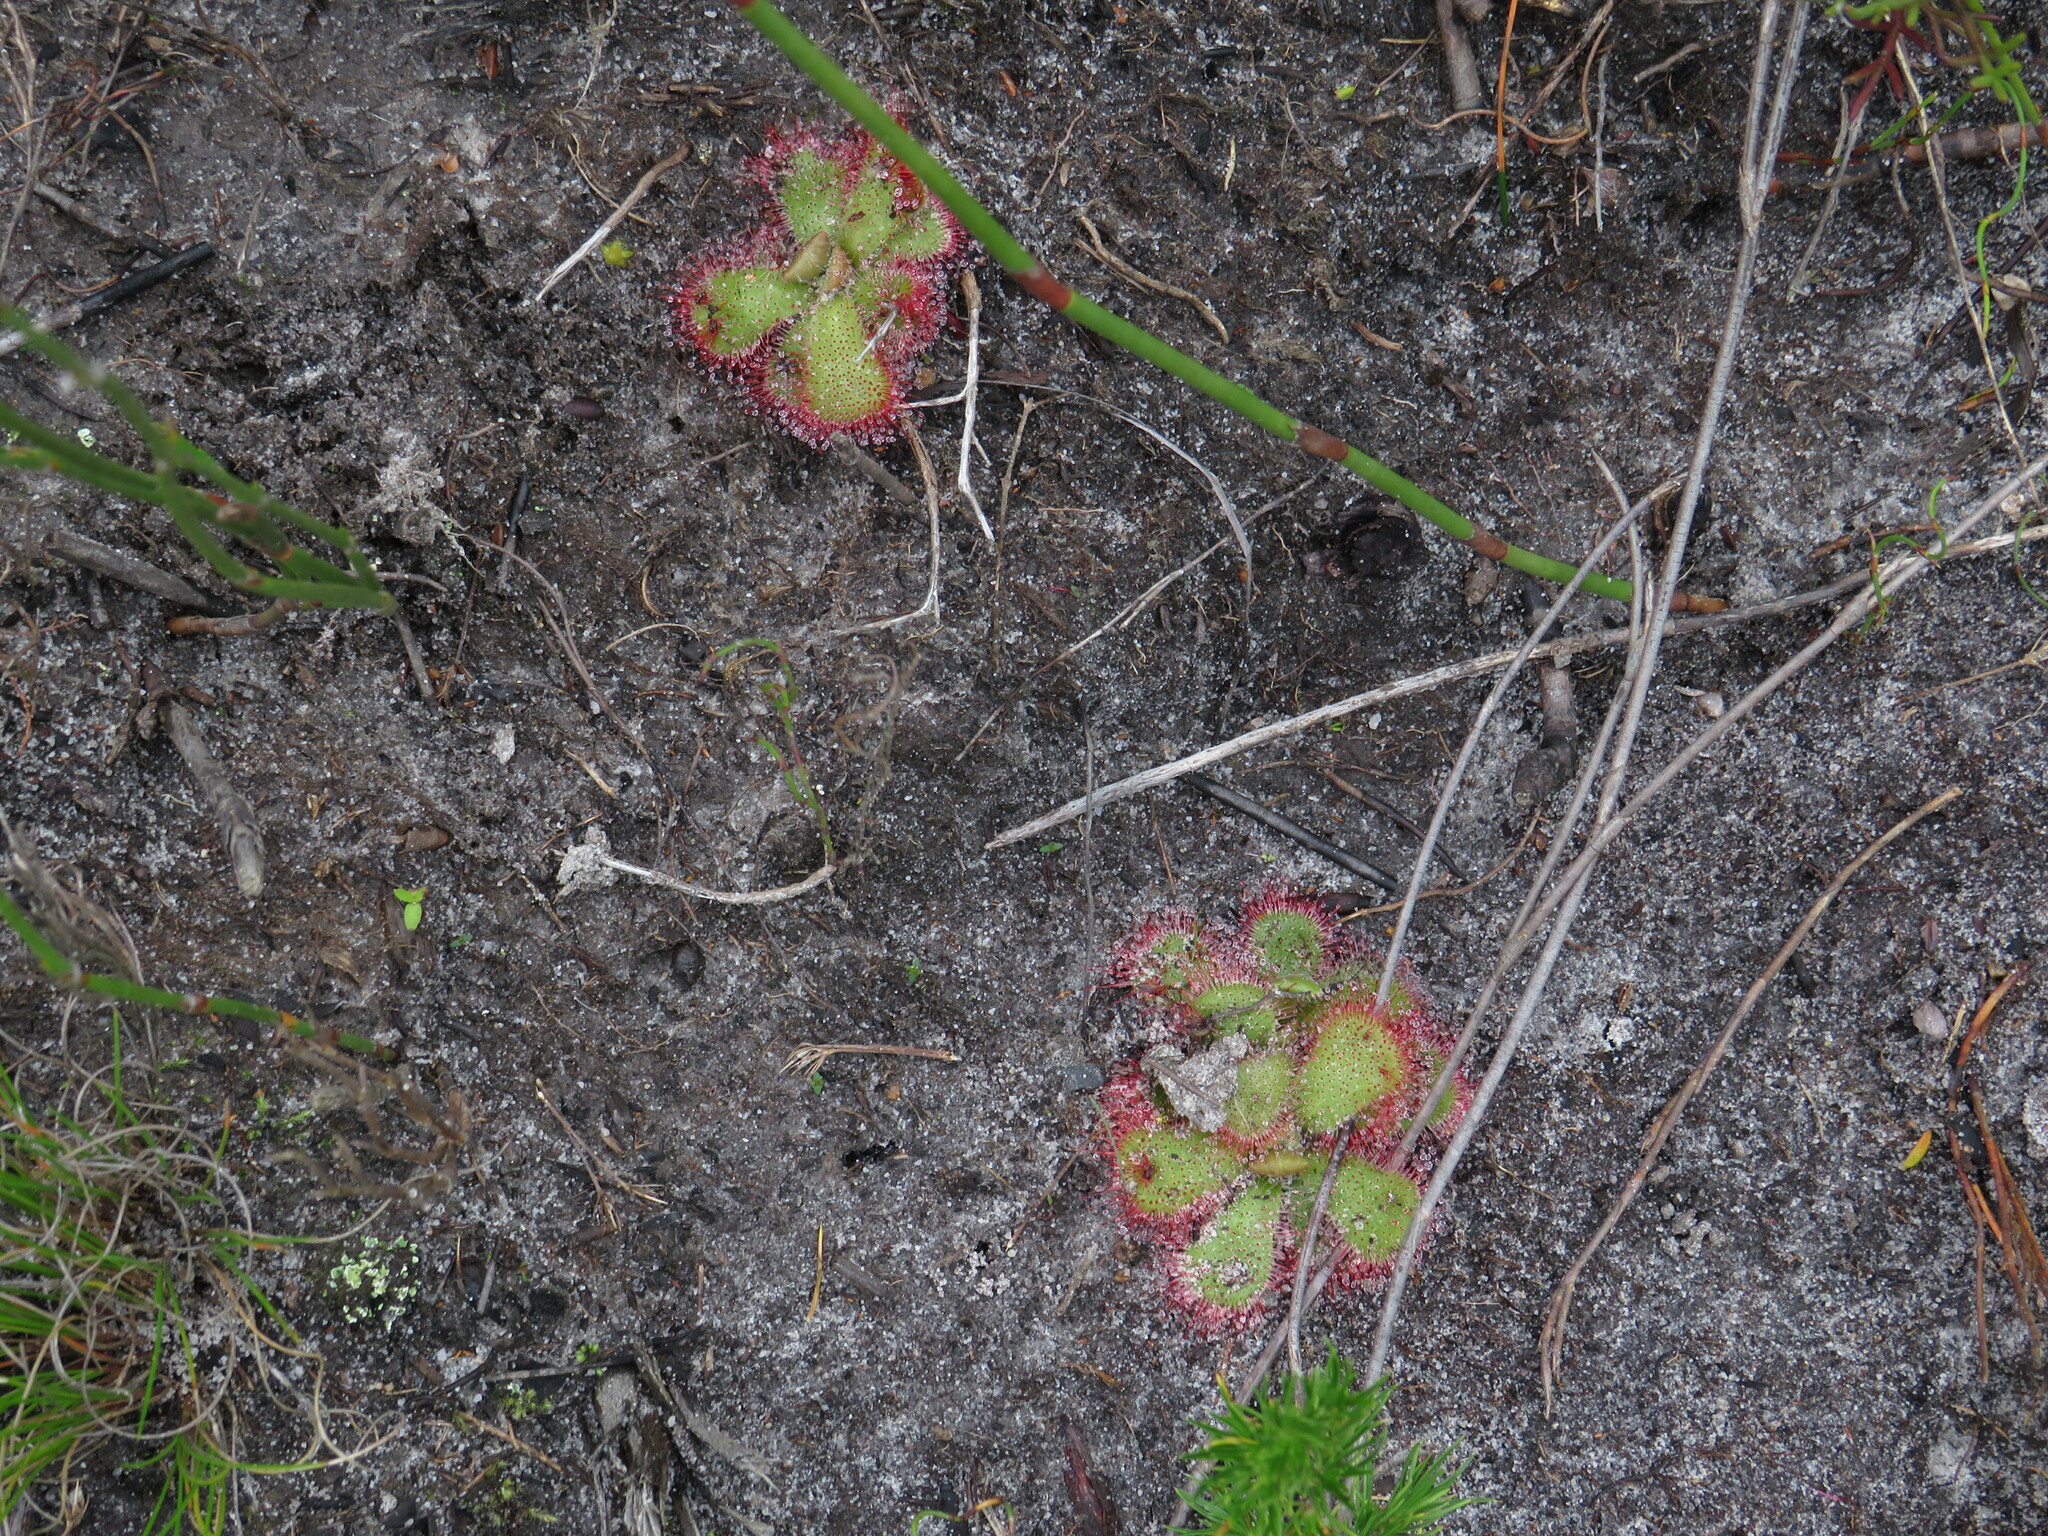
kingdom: Plantae
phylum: Tracheophyta
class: Magnoliopsida
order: Caryophyllales
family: Droseraceae
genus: Drosera
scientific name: Drosera cuneifolia
